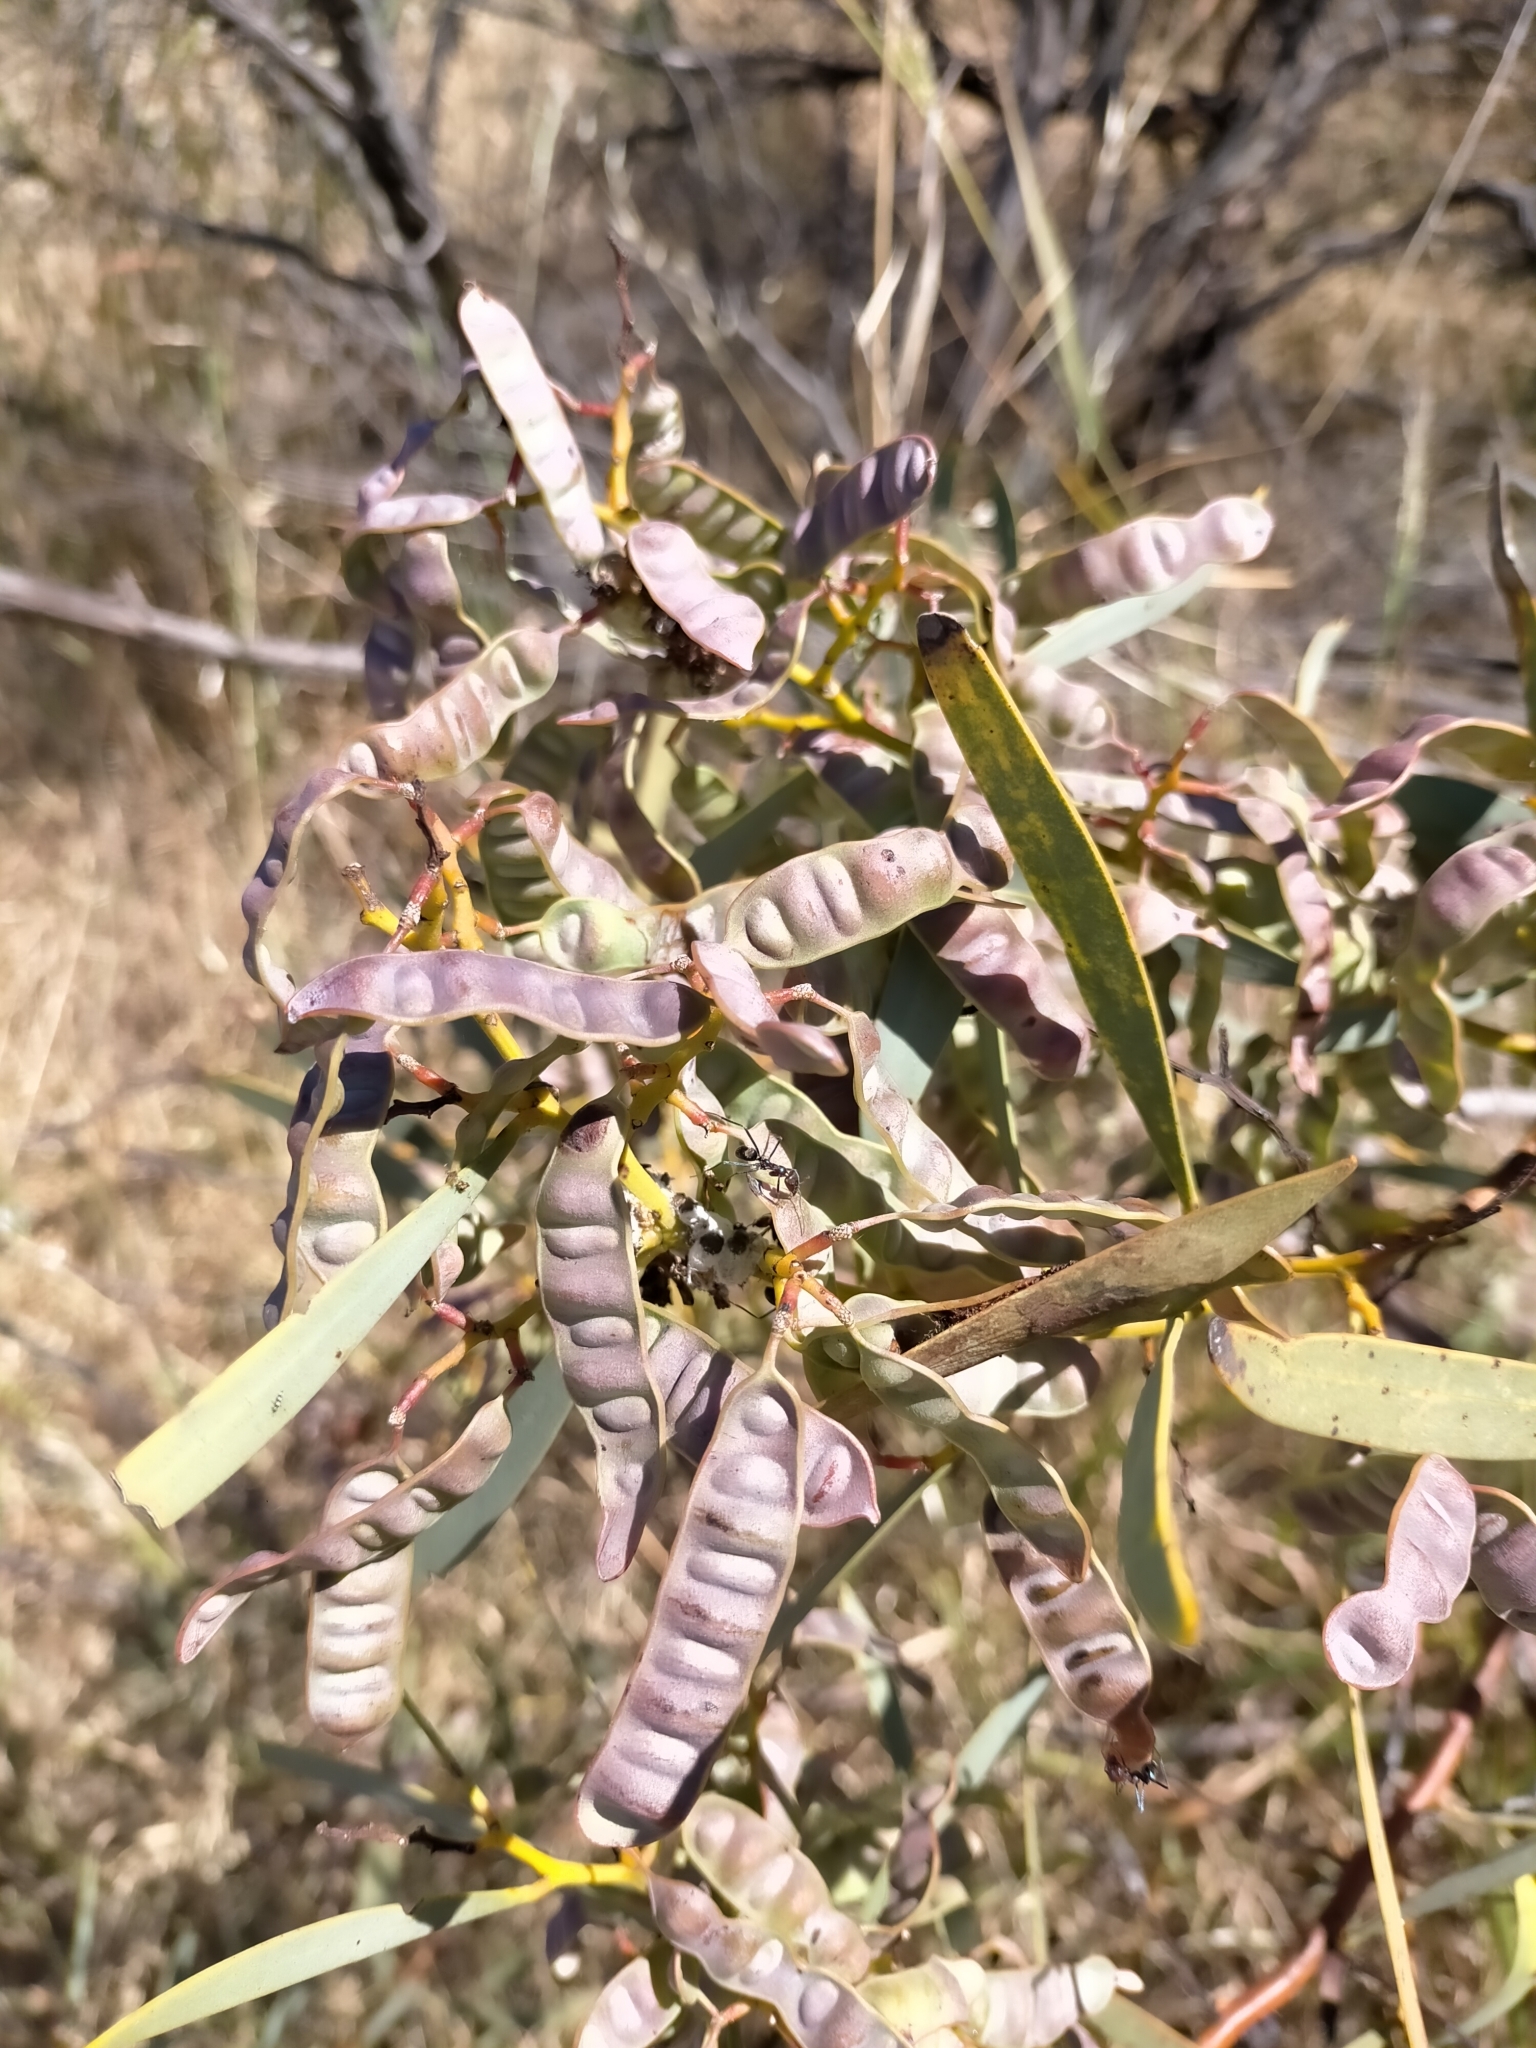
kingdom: Animalia
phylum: Arthropoda
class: Insecta
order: Hymenoptera
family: Pteromalidae
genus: Trichilogaster
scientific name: Trichilogaster signiventris
